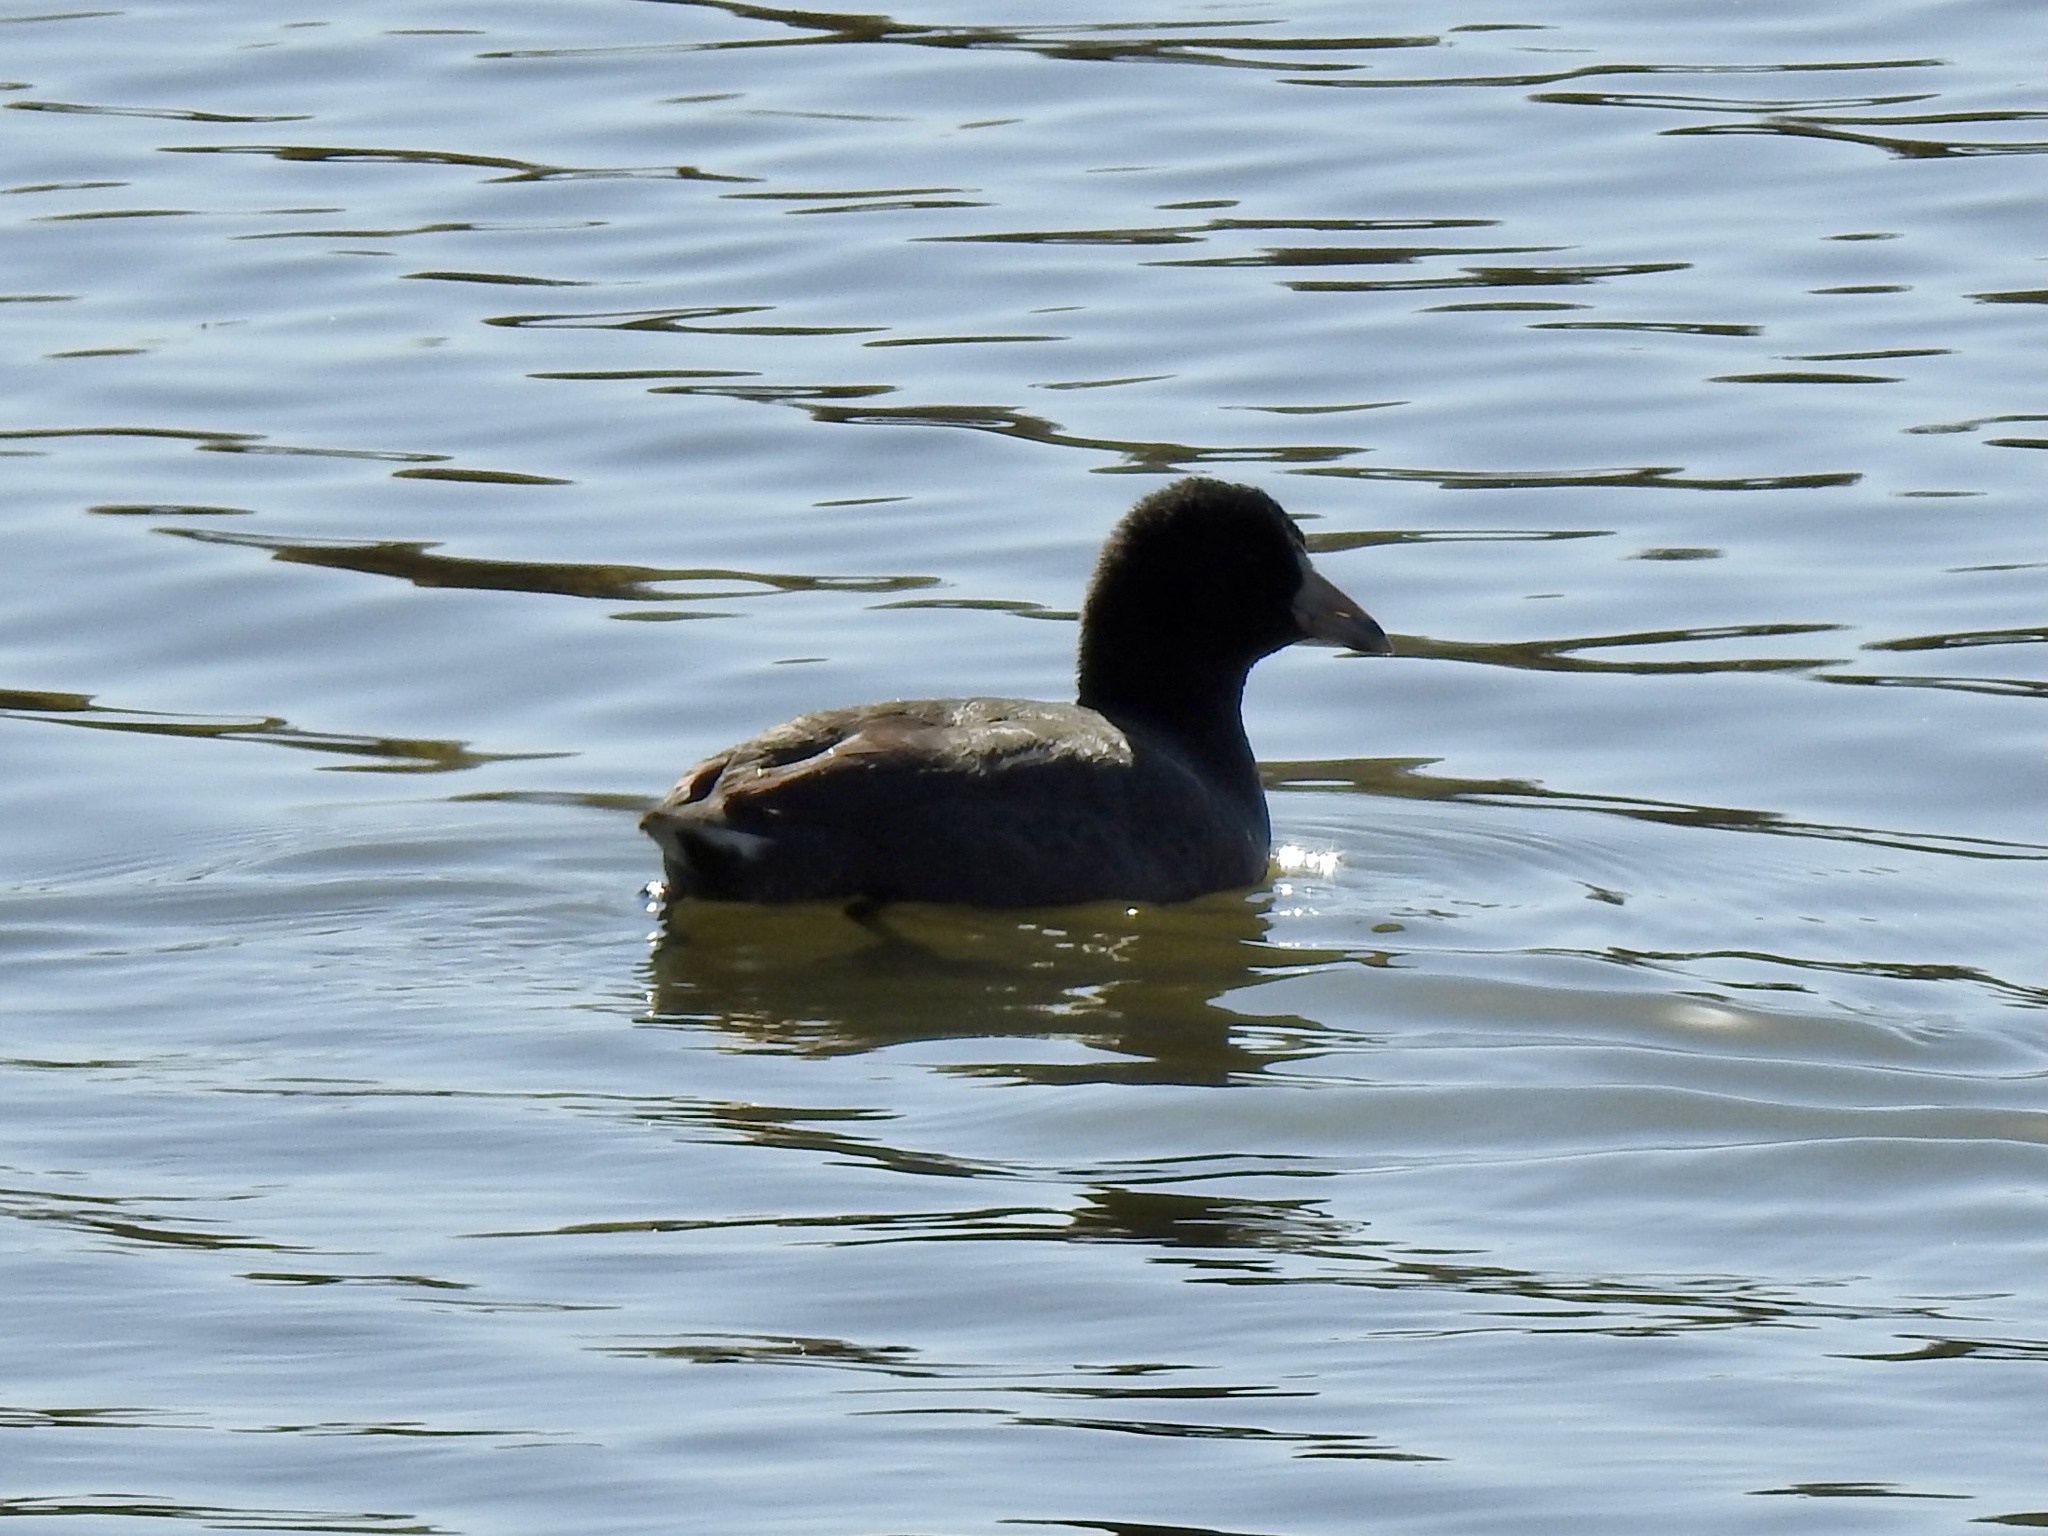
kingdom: Animalia
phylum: Chordata
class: Aves
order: Gruiformes
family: Rallidae
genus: Fulica
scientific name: Fulica americana
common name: American coot
